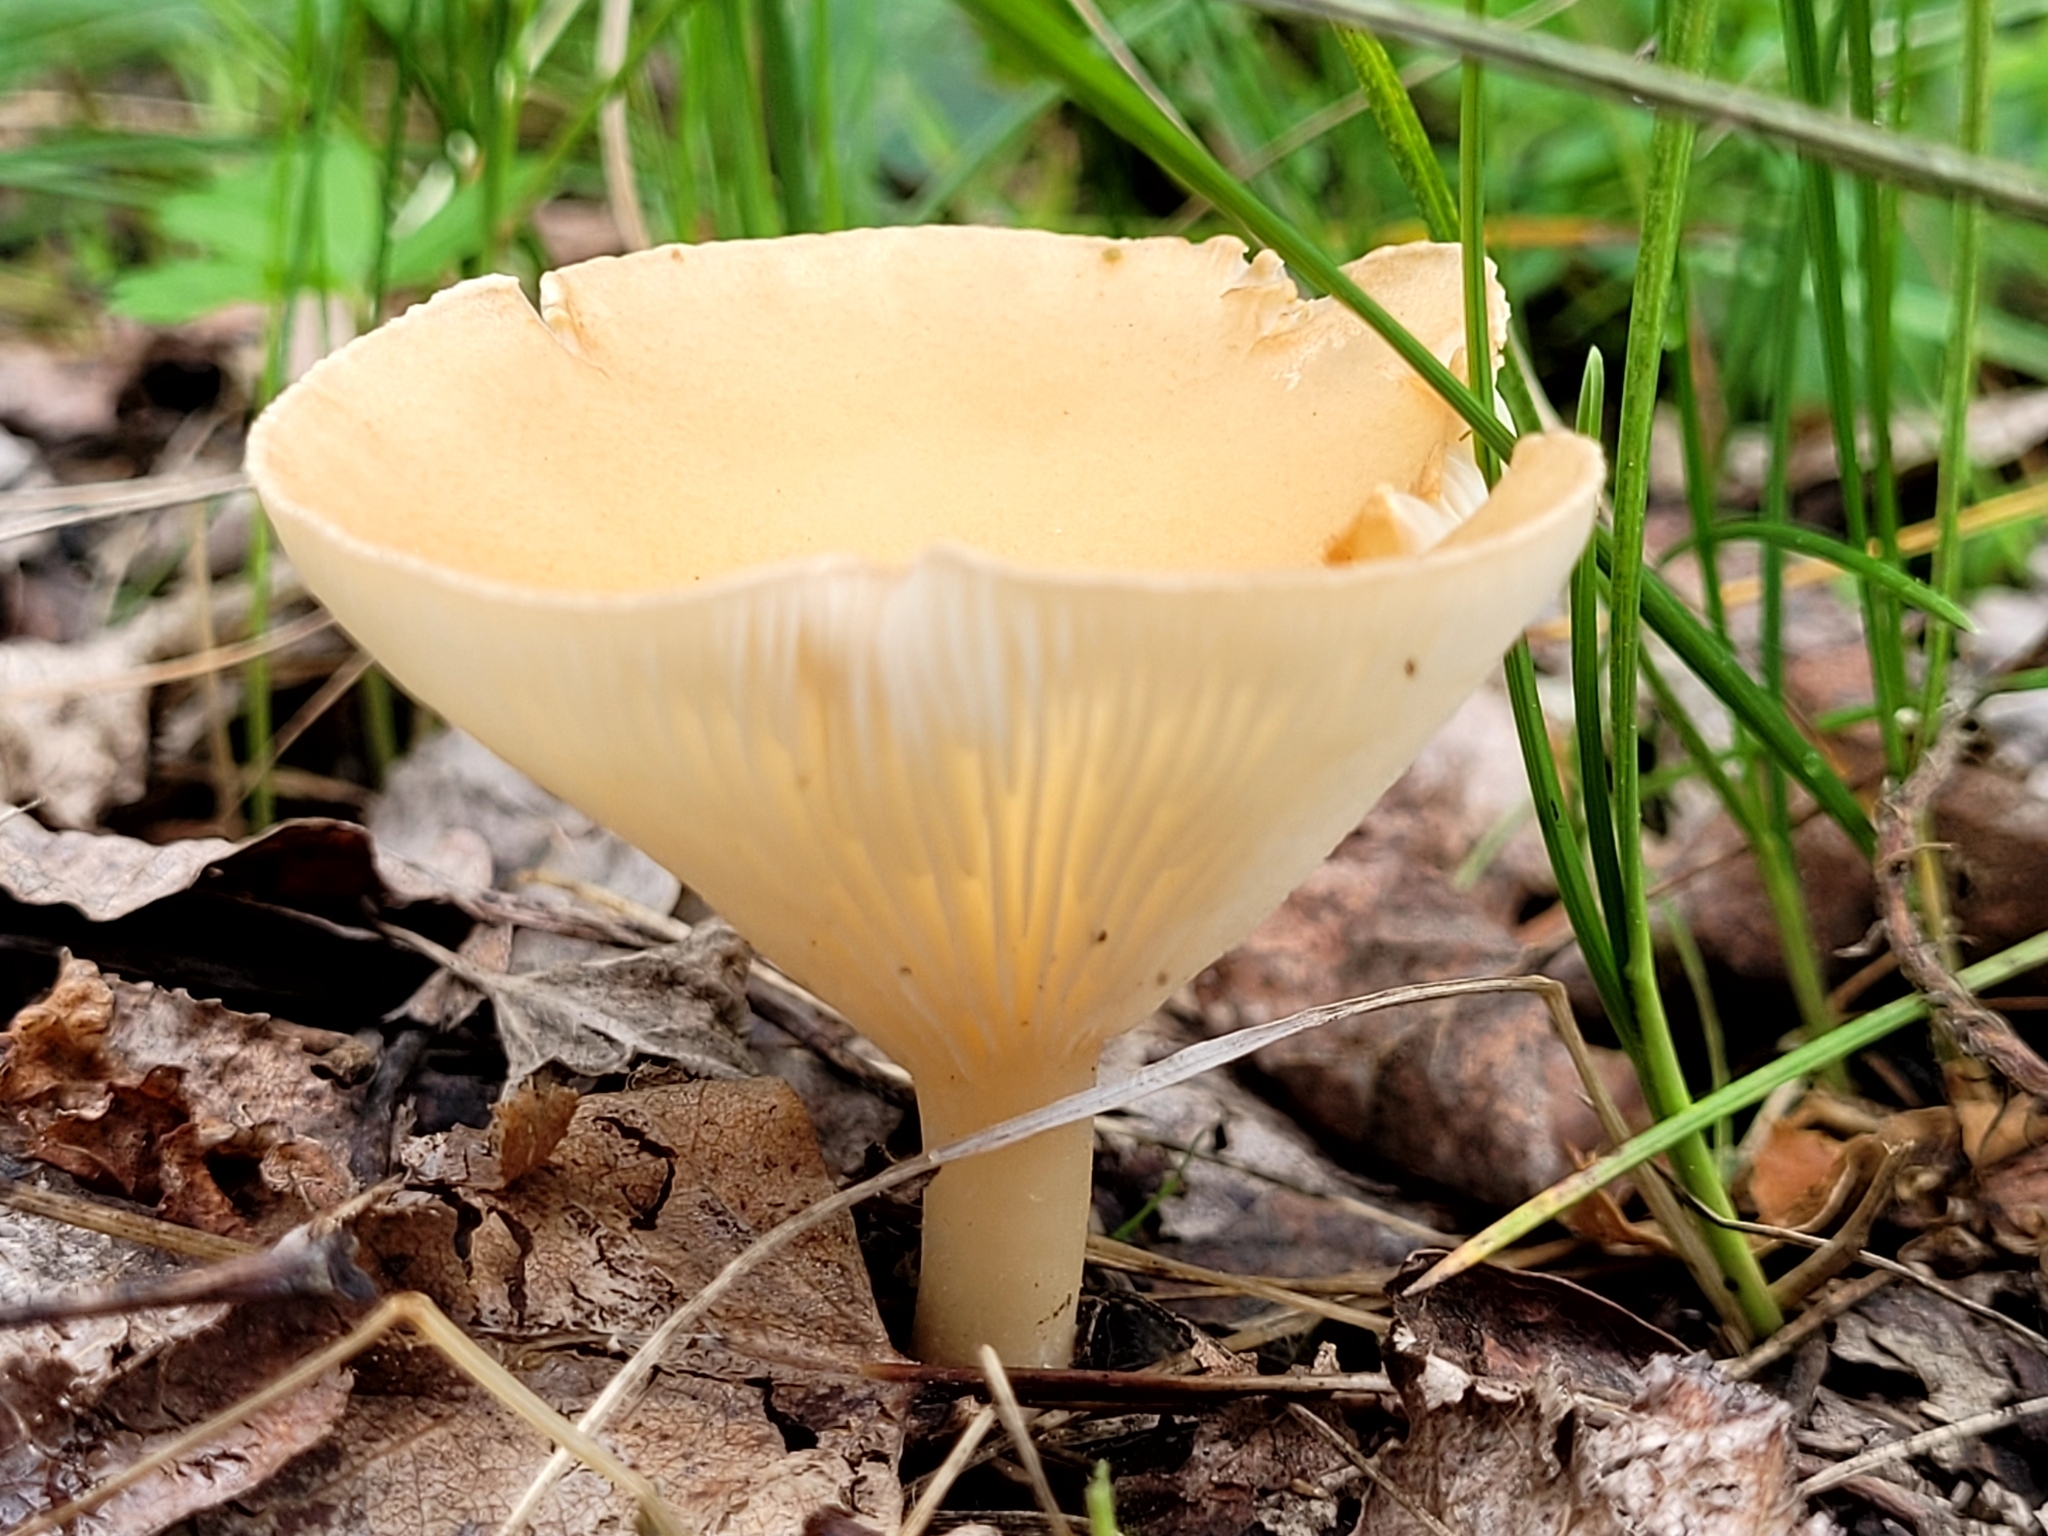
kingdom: Fungi
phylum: Basidiomycota
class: Agaricomycetes
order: Agaricales
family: Tricholomataceae
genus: Infundibulicybe
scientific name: Infundibulicybe gibba
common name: Common funnel
